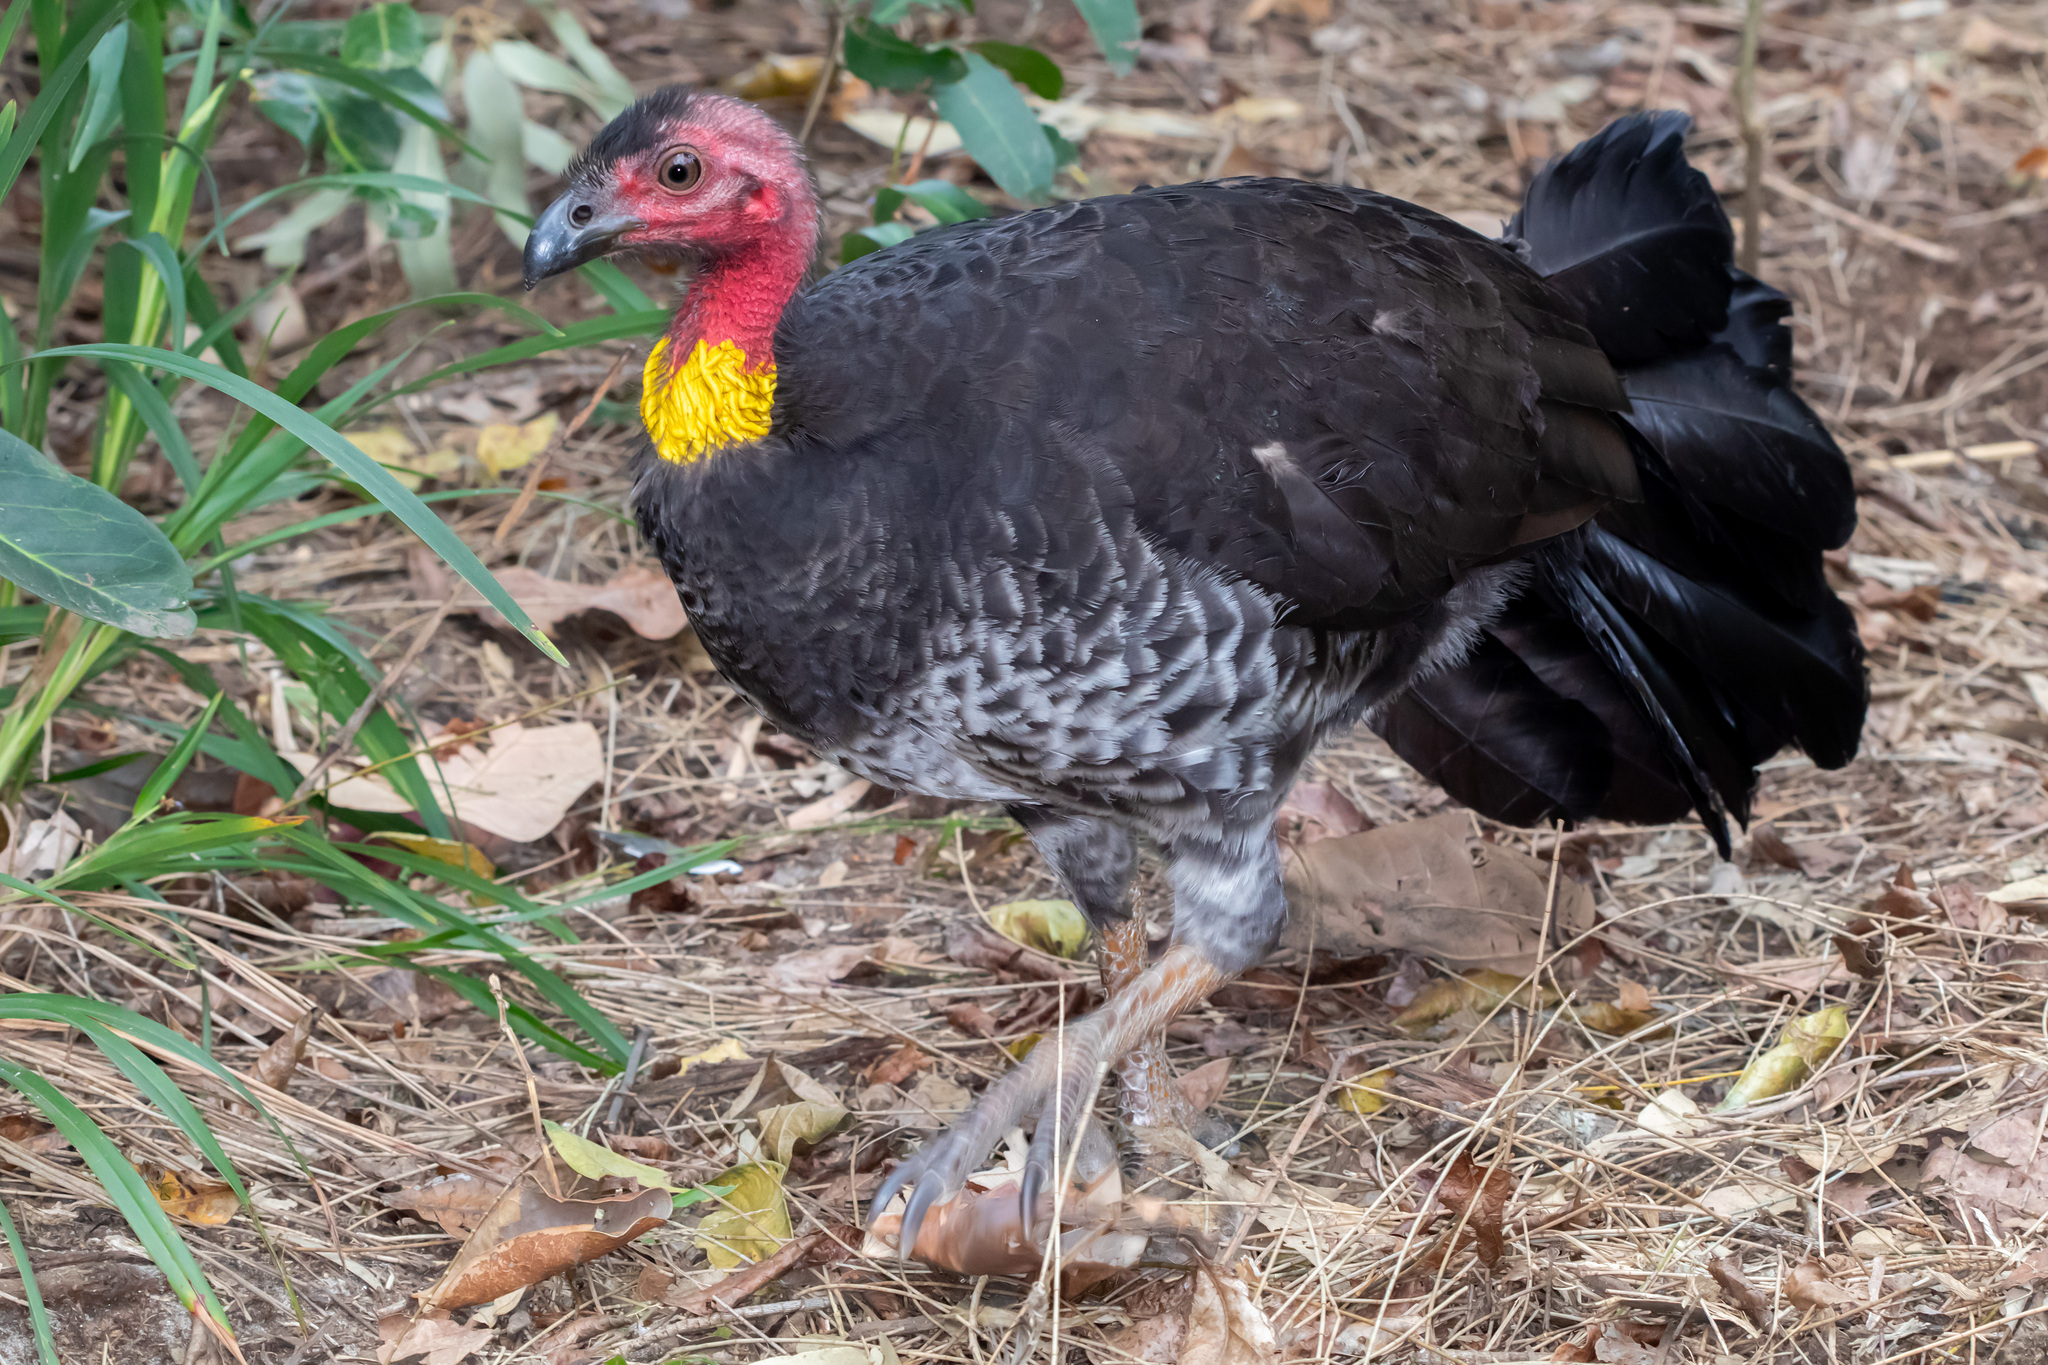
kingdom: Animalia
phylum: Chordata
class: Aves
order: Galliformes
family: Megapodiidae
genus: Alectura
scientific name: Alectura lathami
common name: Australian brushturkey
